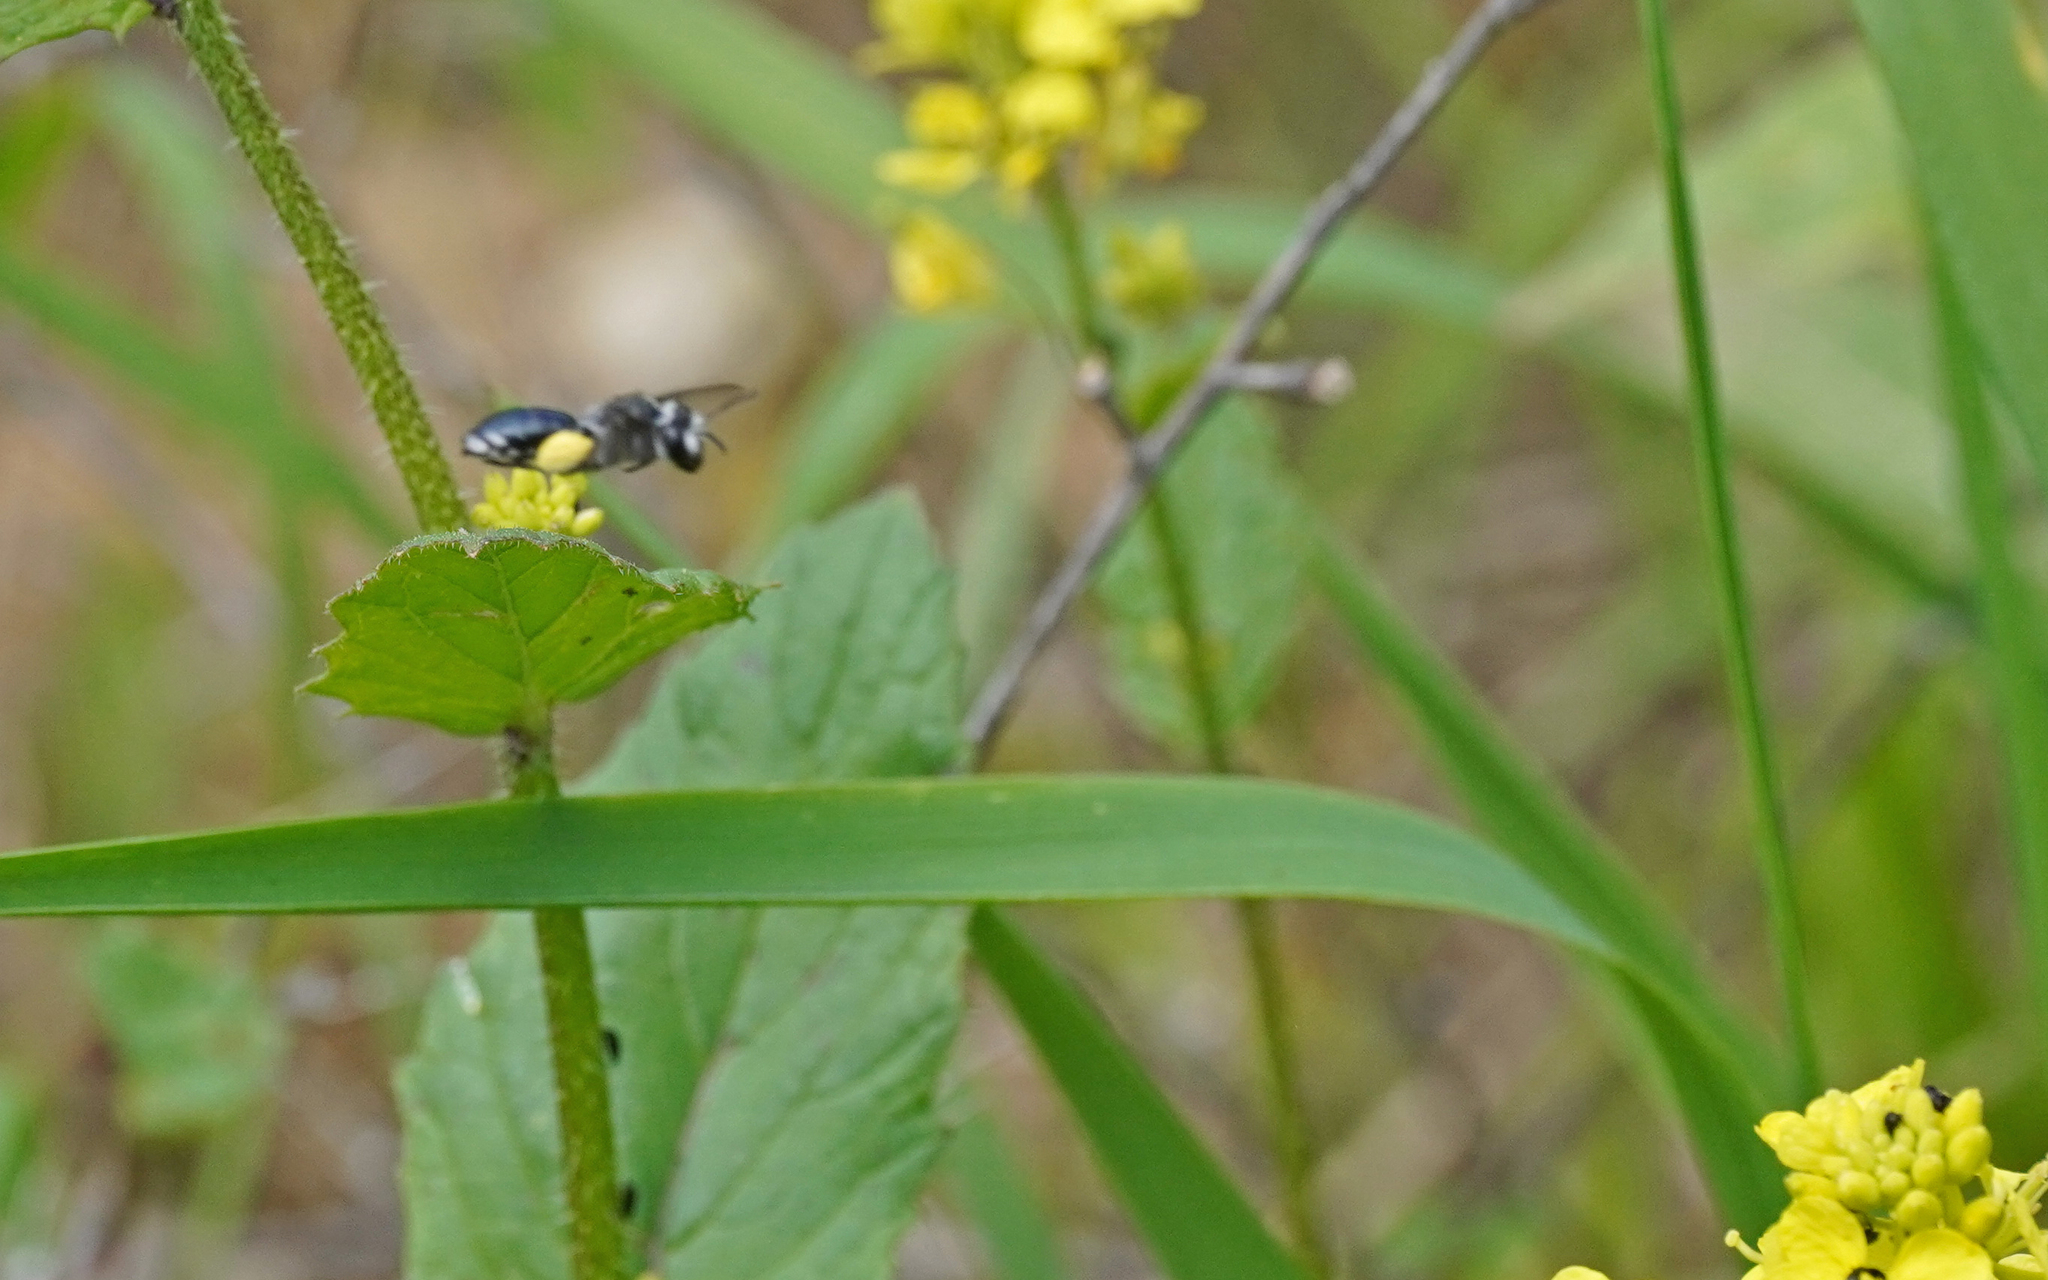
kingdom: Animalia
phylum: Arthropoda
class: Insecta
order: Hymenoptera
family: Andrenidae
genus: Andrena
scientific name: Andrena agilissima
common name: Violet-winged mining bee
